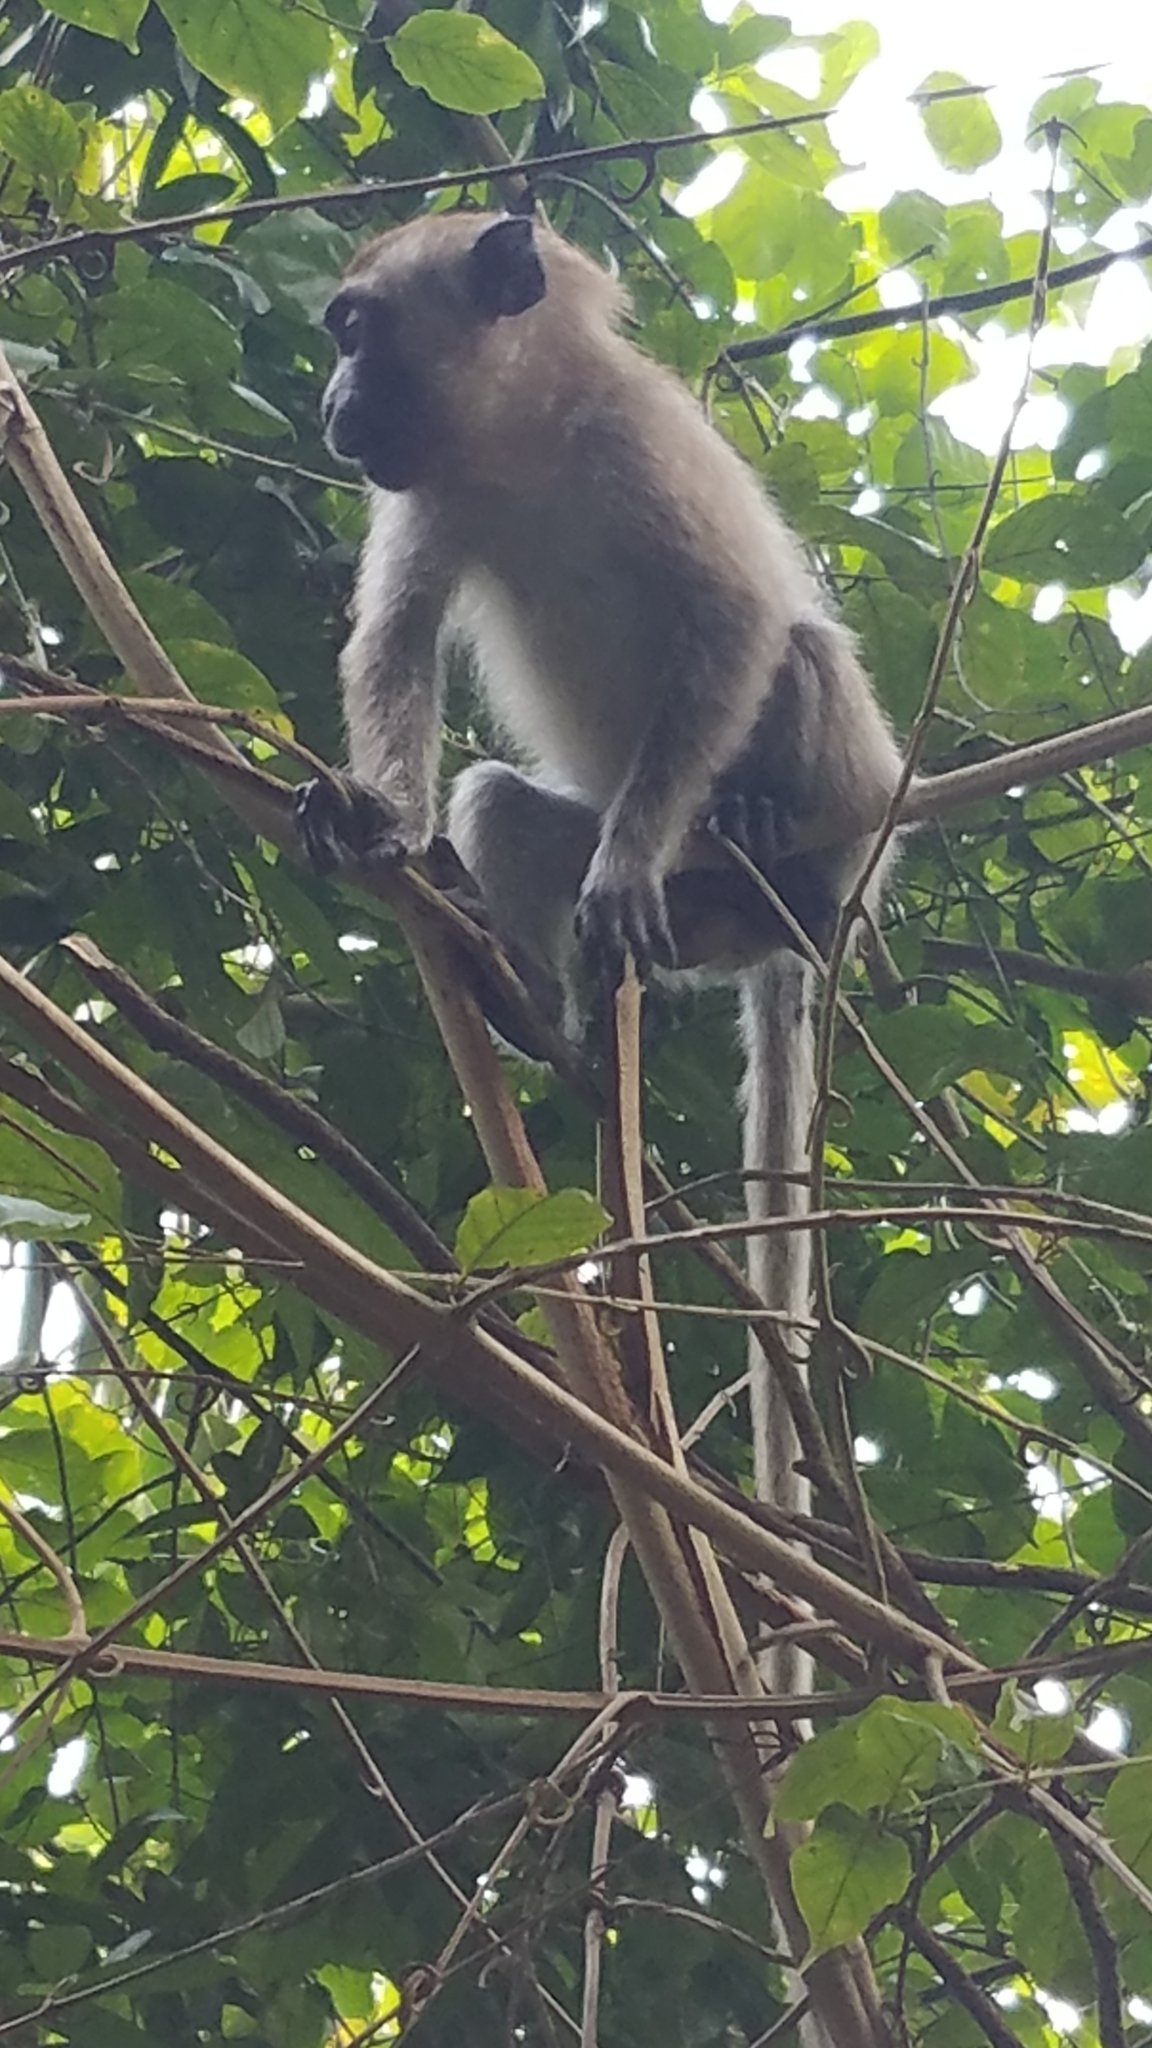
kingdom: Animalia
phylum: Chordata
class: Mammalia
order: Primates
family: Cercopithecidae
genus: Macaca
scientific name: Macaca fascicularis
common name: Crab-eating macaque
